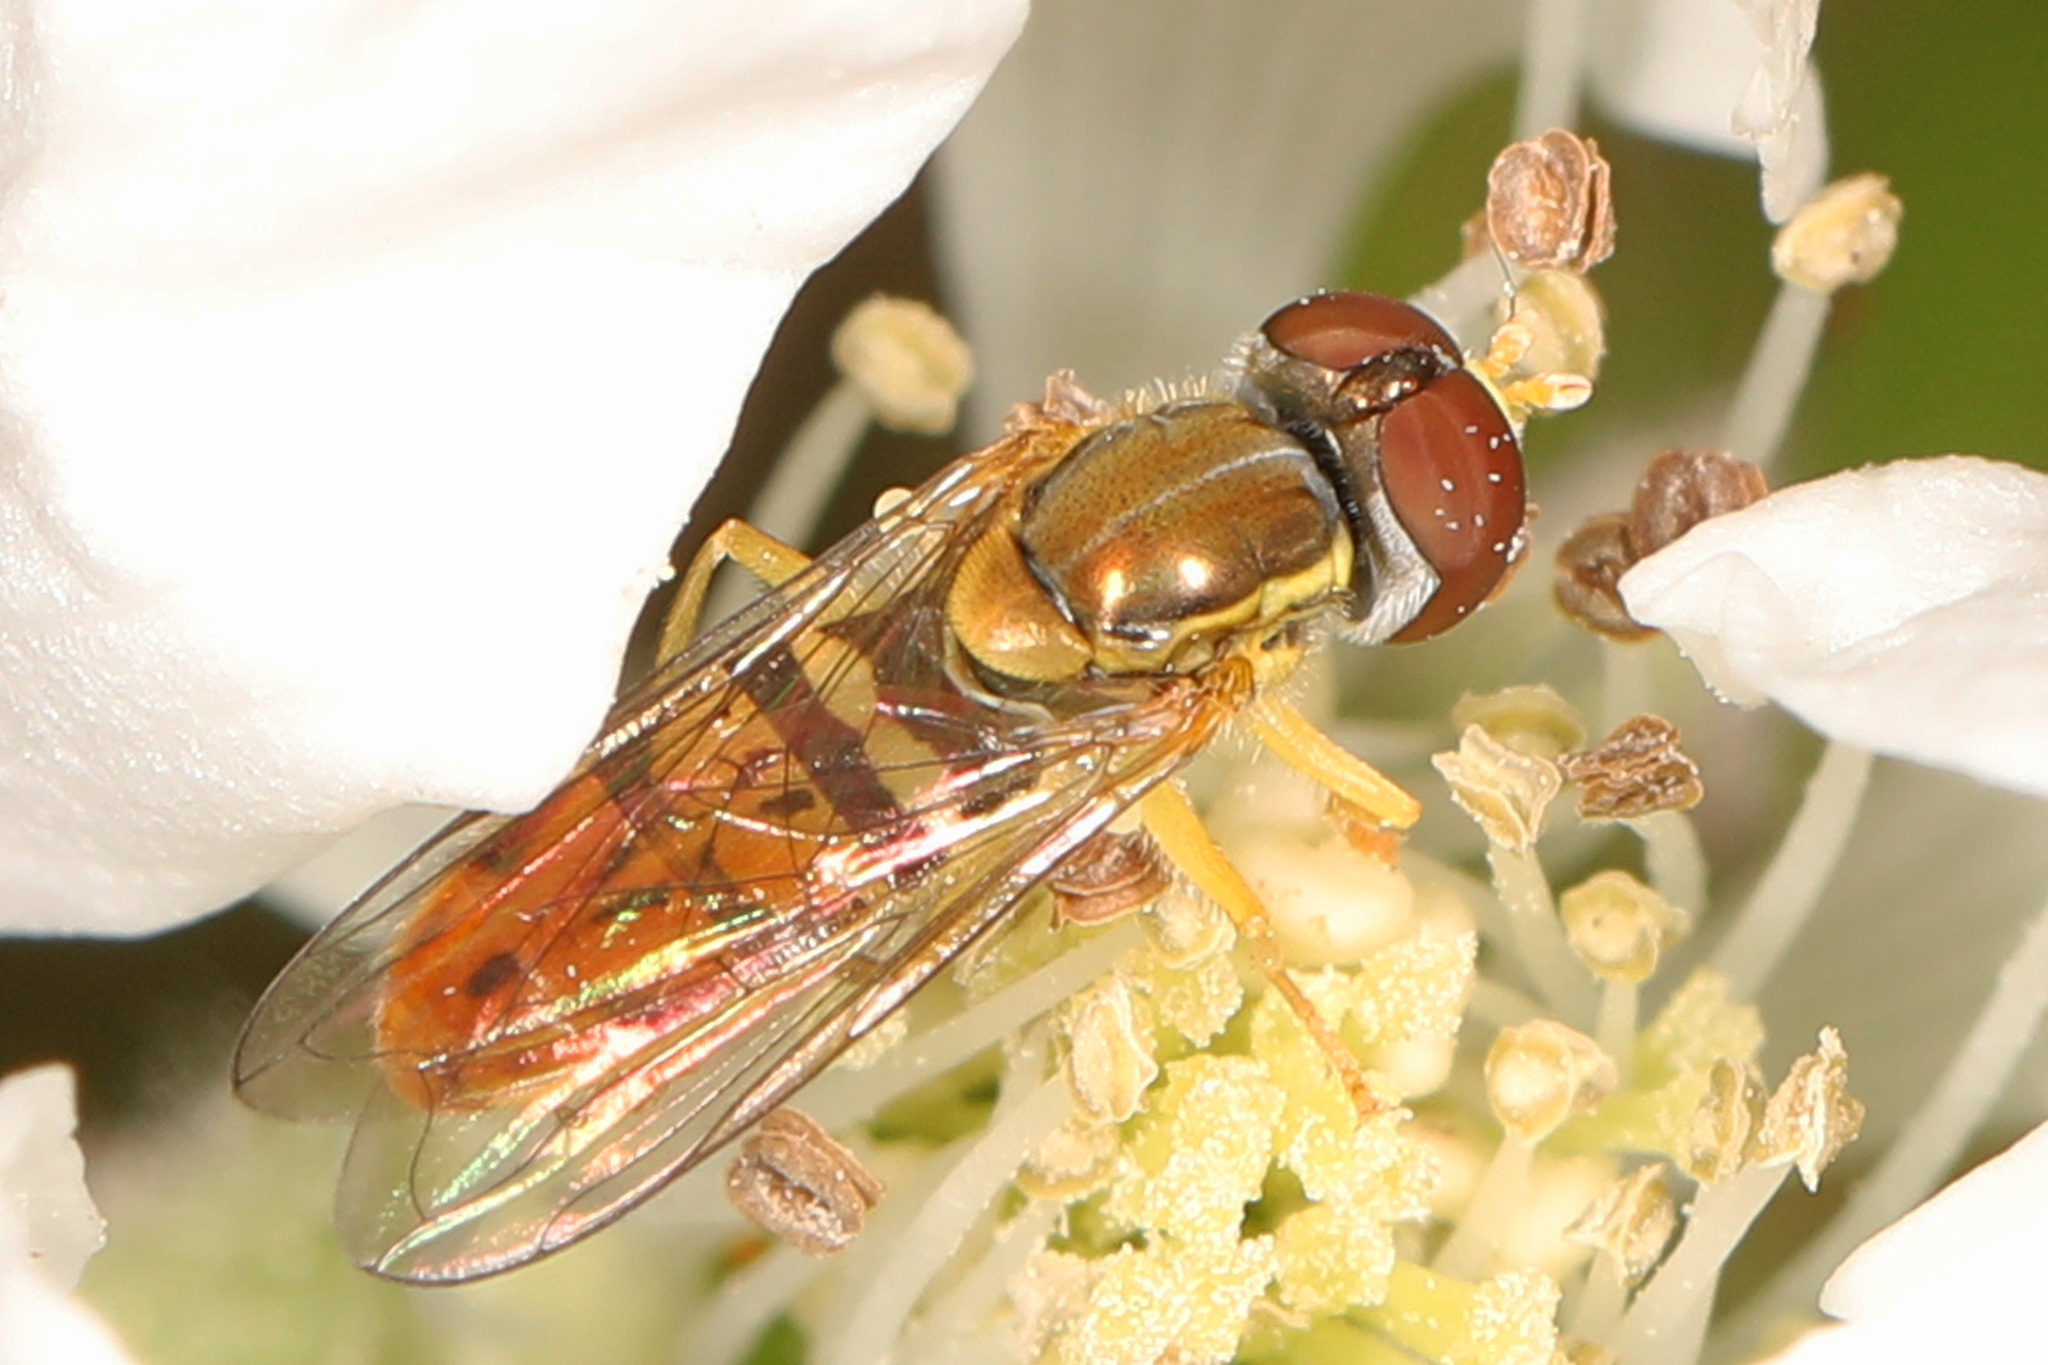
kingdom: Animalia
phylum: Arthropoda
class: Insecta
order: Diptera
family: Syrphidae
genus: Toxomerus
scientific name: Toxomerus marginatus
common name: Syrphid fly
